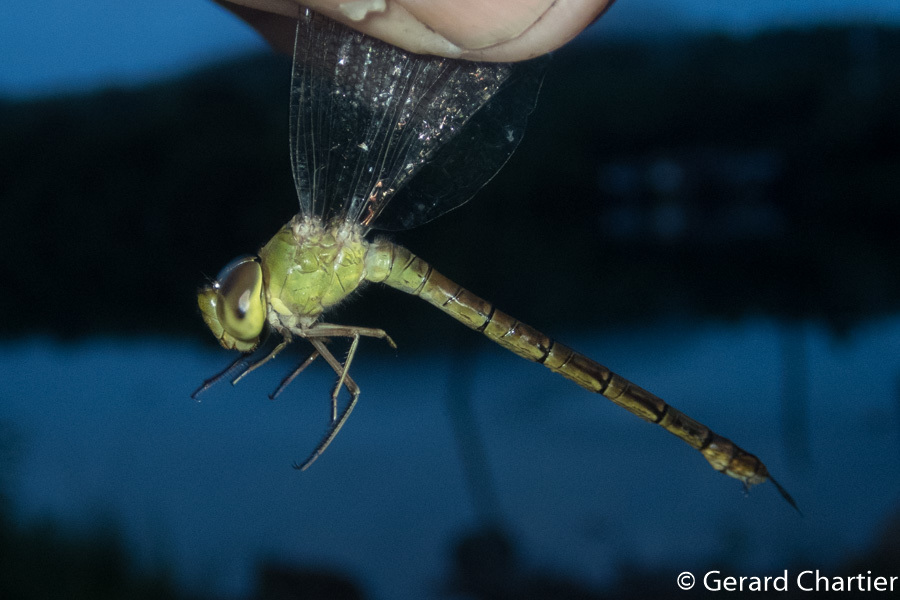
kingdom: Animalia
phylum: Arthropoda
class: Insecta
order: Odonata
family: Aeshnidae
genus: Gynacantha
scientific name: Gynacantha bayadera
